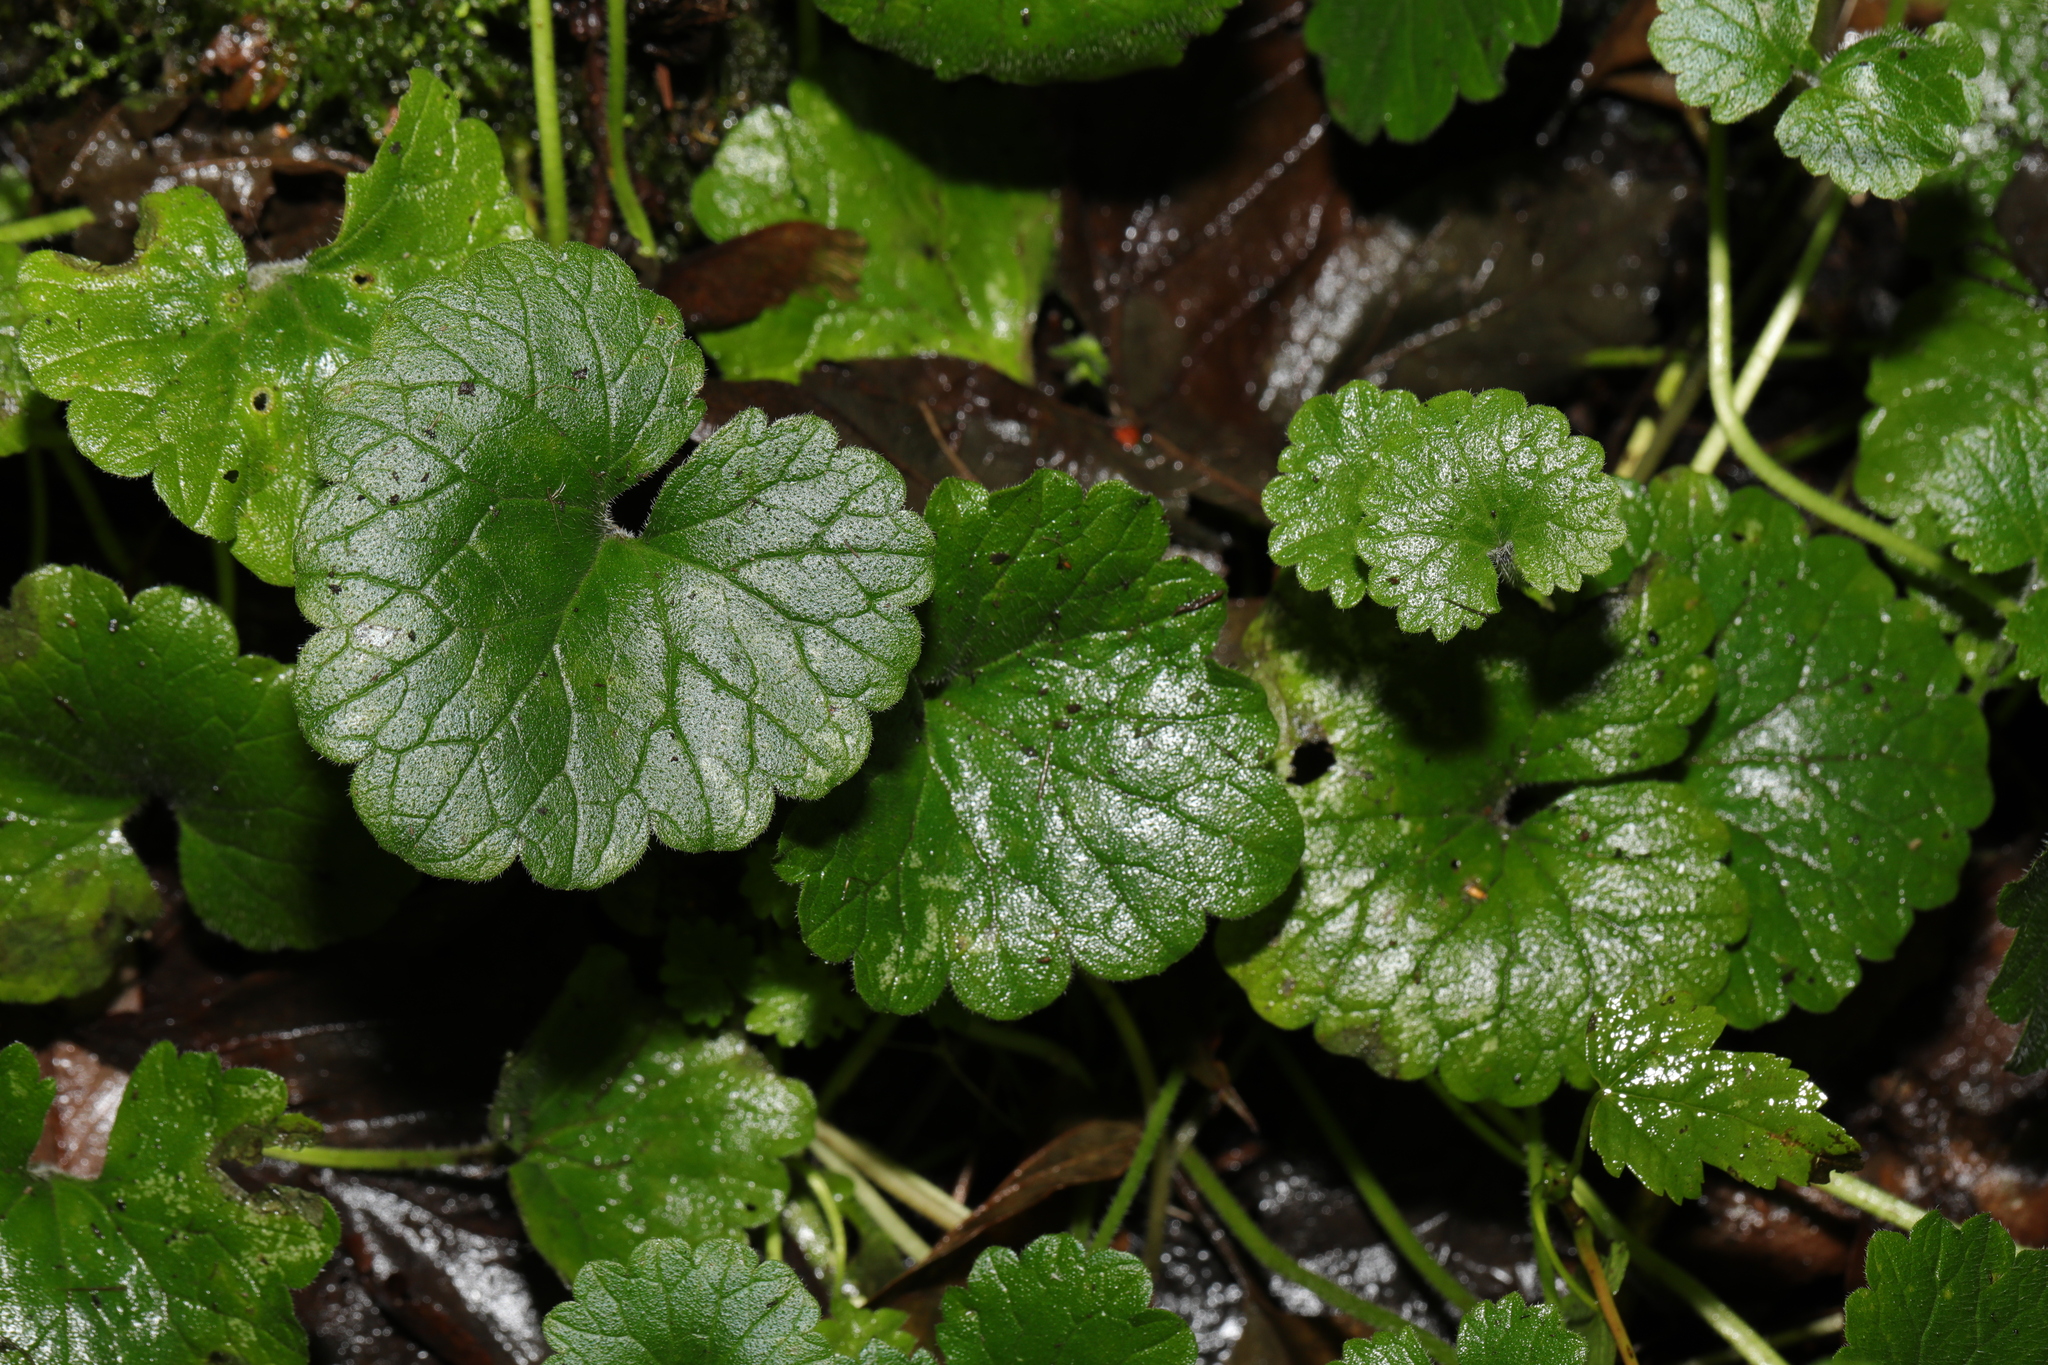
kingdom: Plantae
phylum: Tracheophyta
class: Magnoliopsida
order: Lamiales
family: Lamiaceae
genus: Glechoma
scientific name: Glechoma hederacea
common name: Ground ivy
